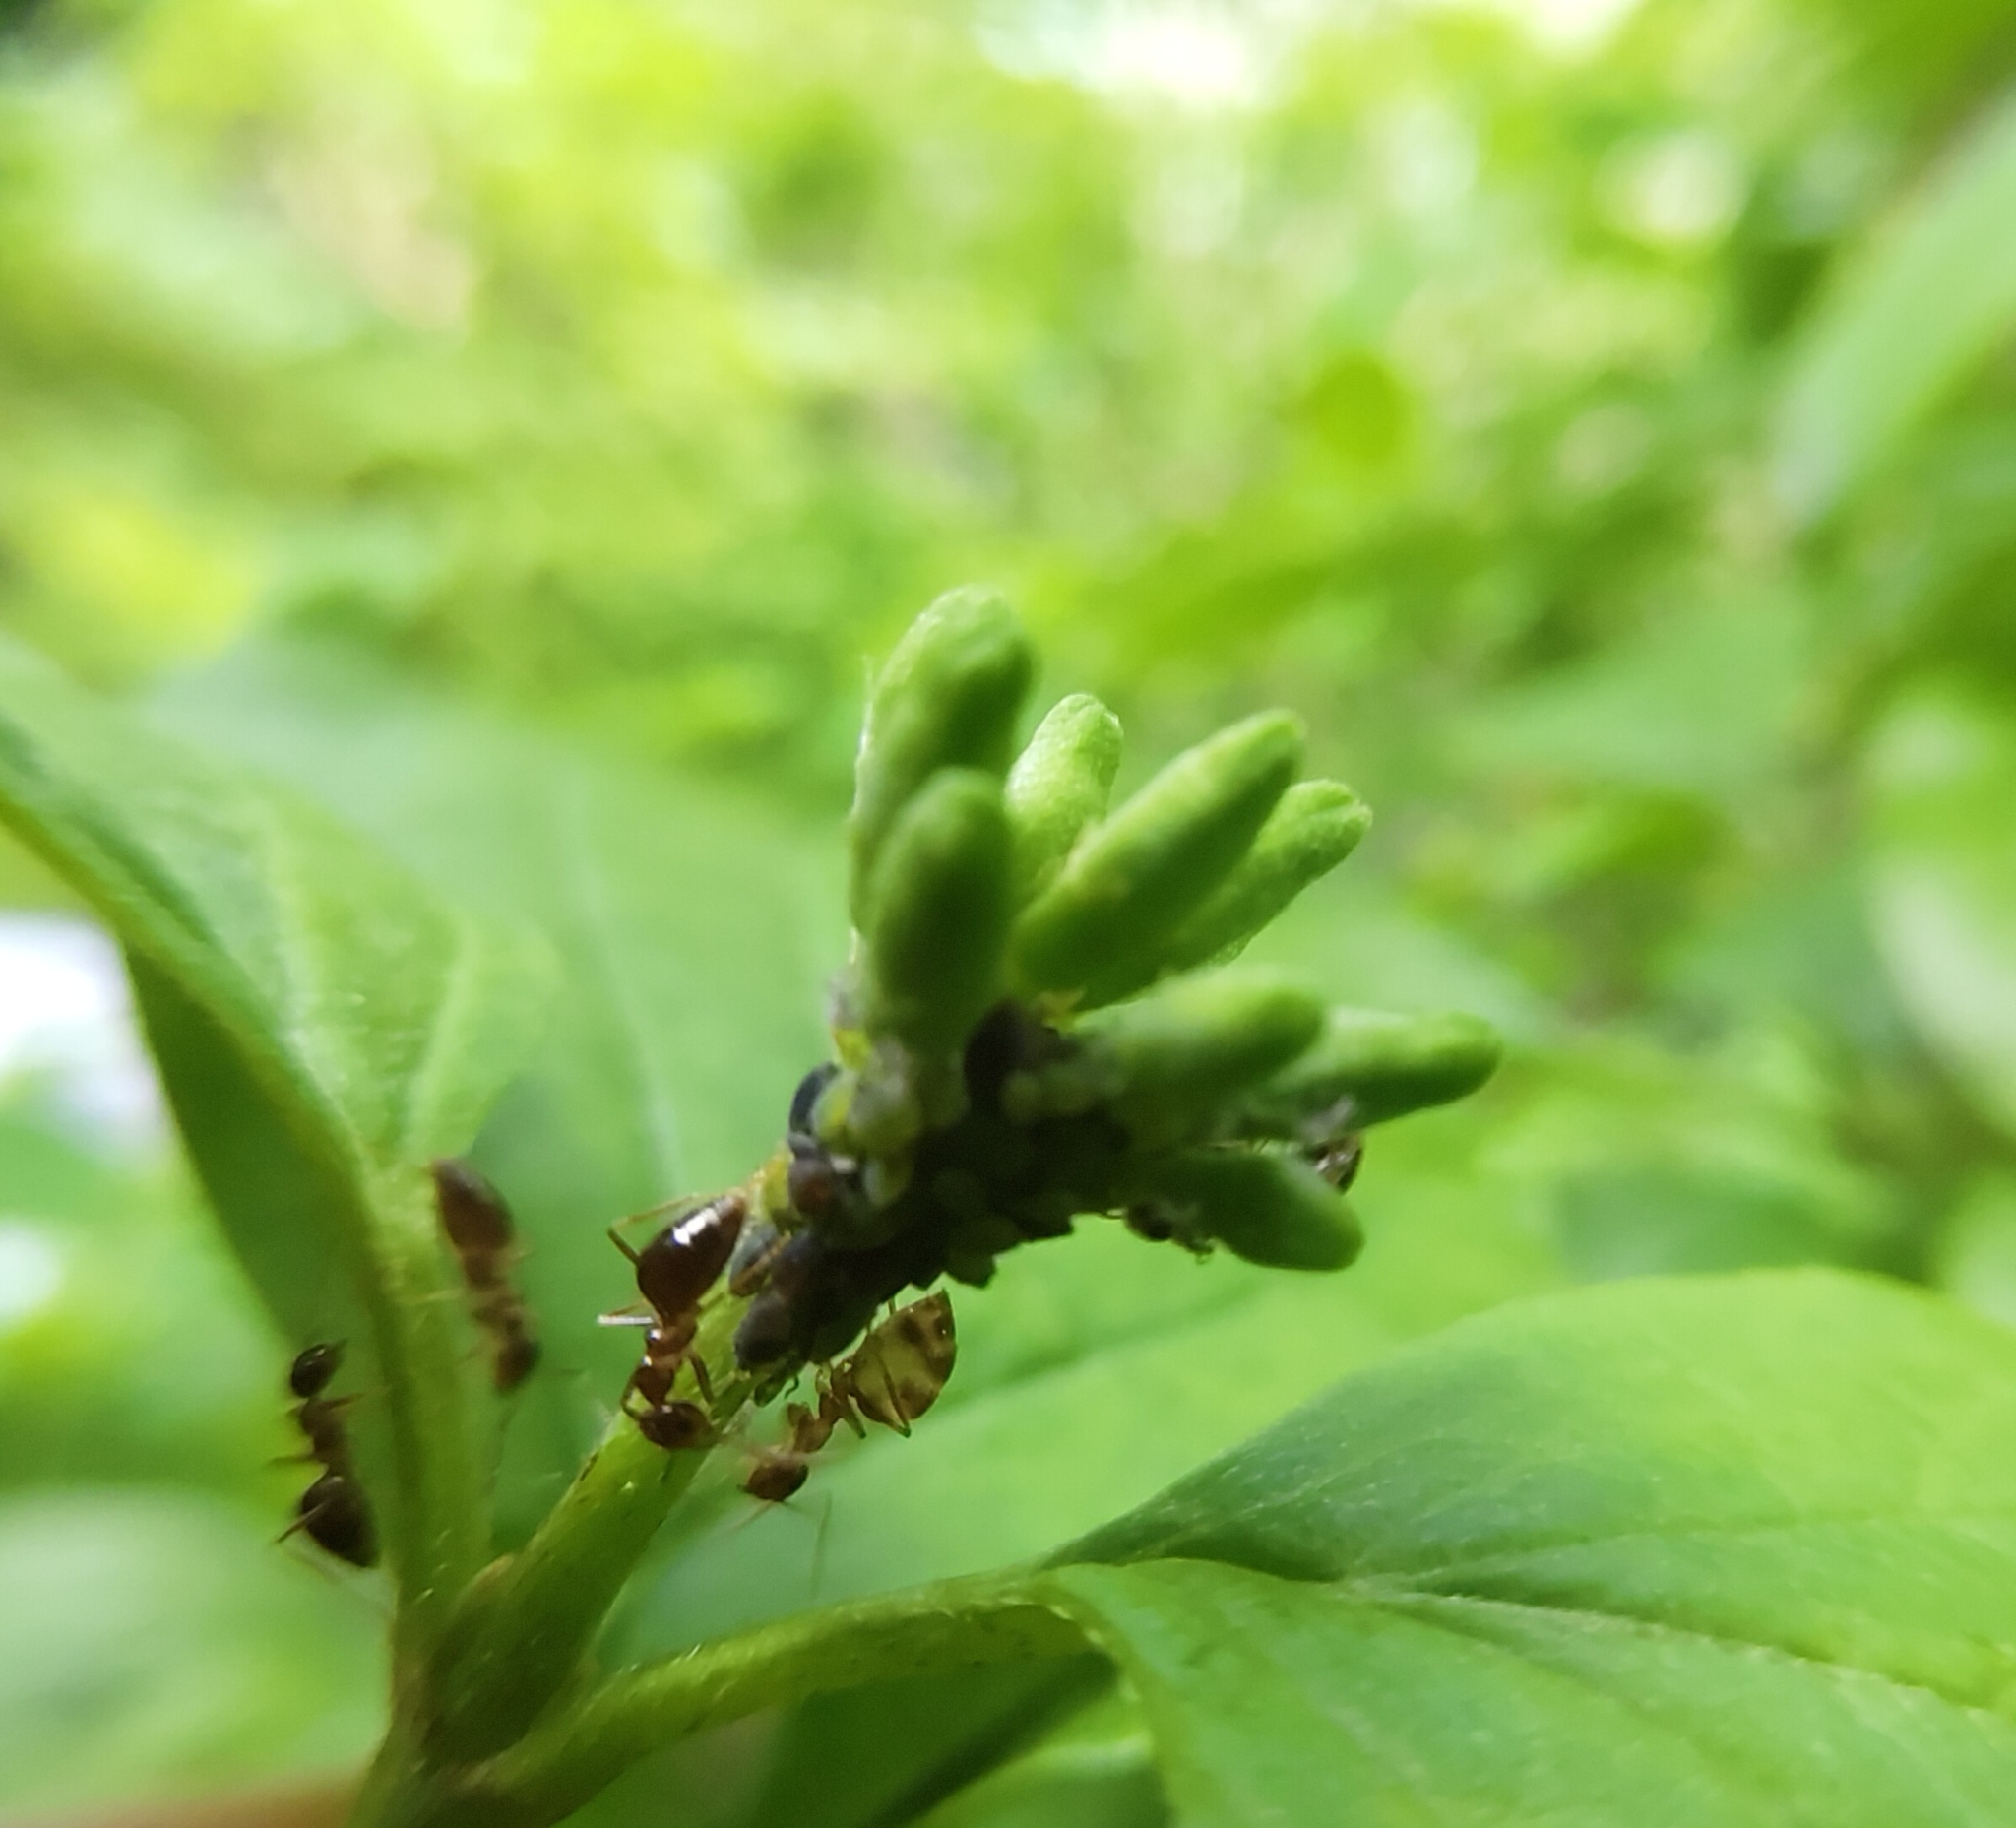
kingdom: Animalia
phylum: Arthropoda
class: Insecta
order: Hymenoptera
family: Formicidae
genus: Prenolepis
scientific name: Prenolepis nitens
